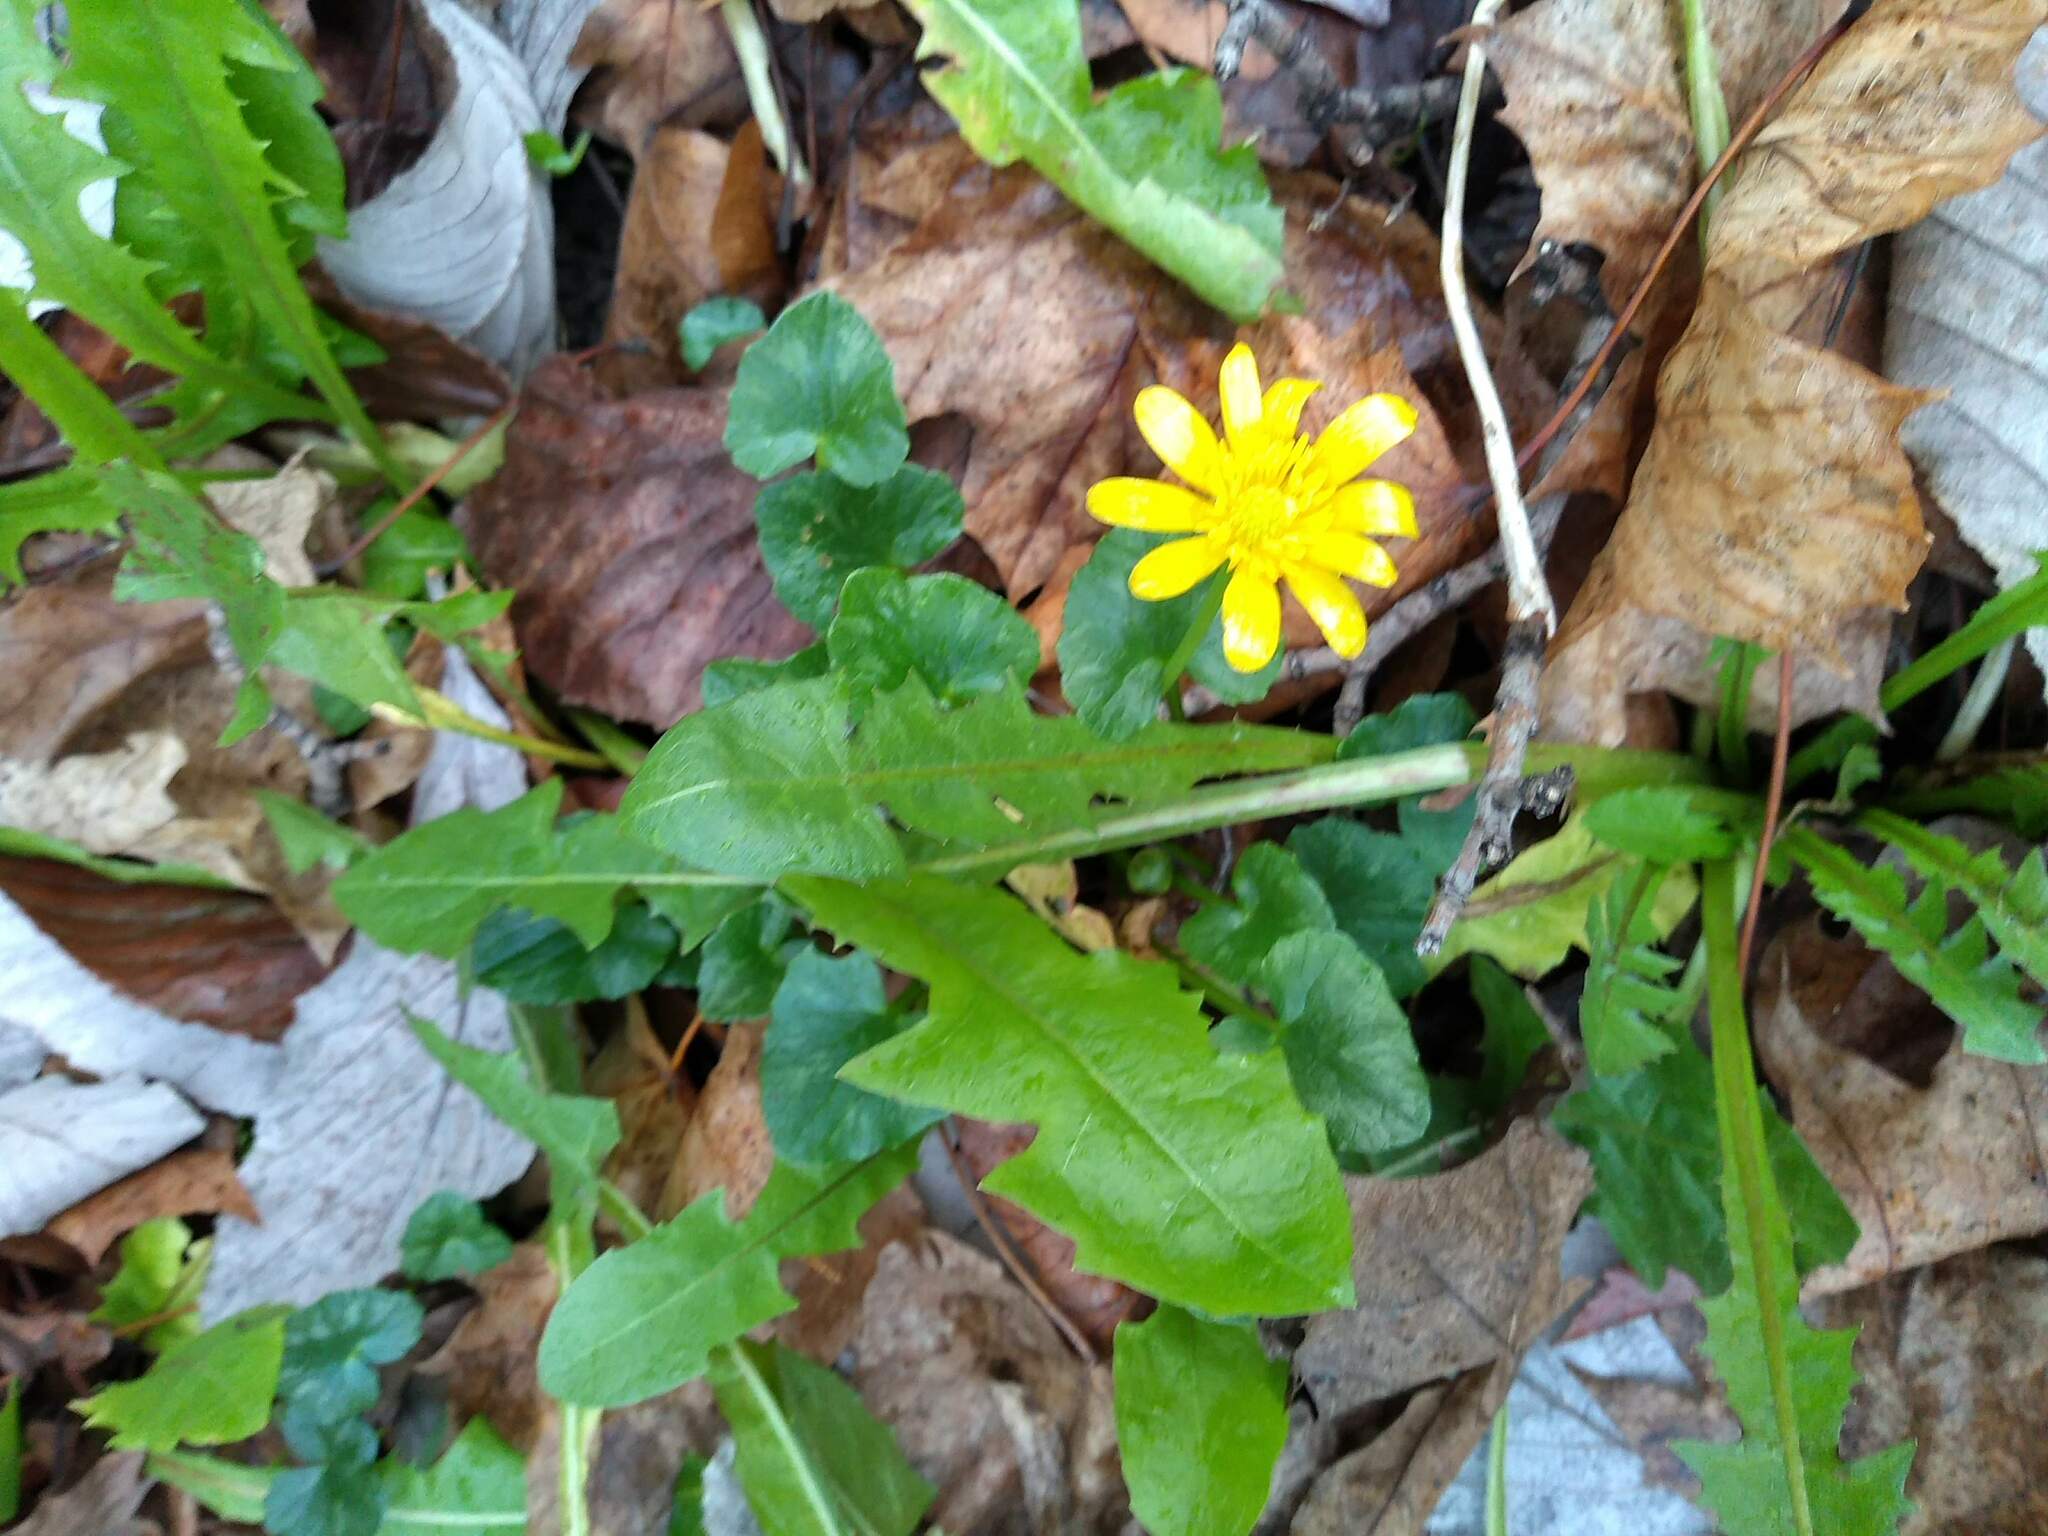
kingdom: Plantae
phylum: Tracheophyta
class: Magnoliopsida
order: Ranunculales
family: Ranunculaceae
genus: Ficaria
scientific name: Ficaria verna
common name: Lesser celandine
